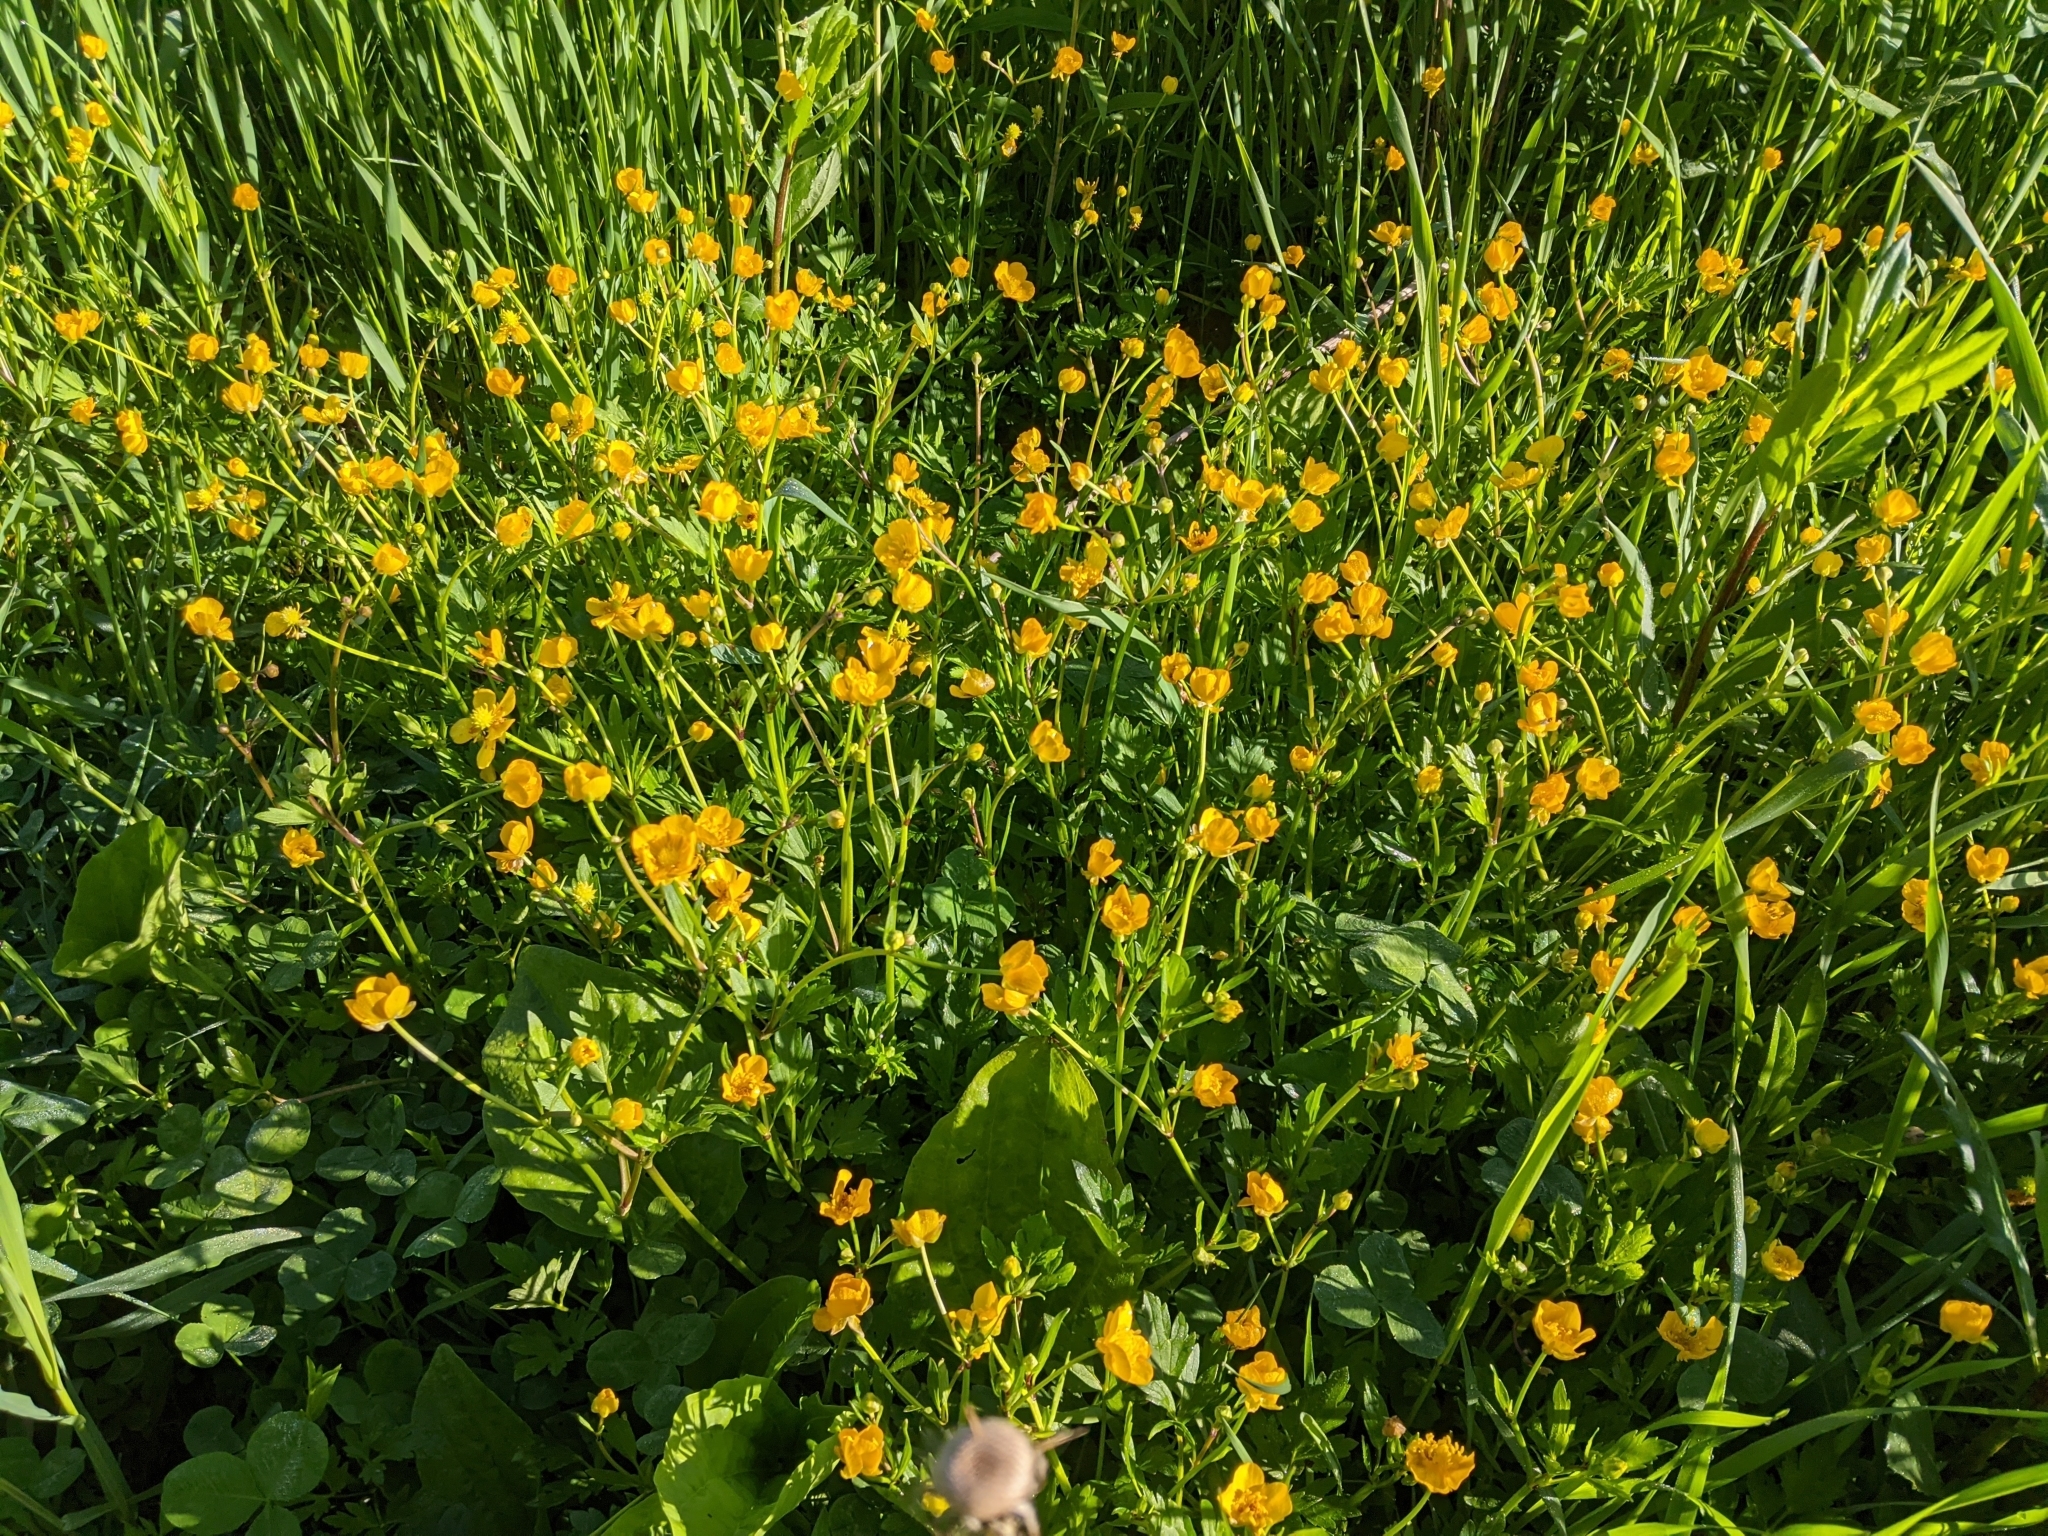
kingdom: Plantae
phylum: Tracheophyta
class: Magnoliopsida
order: Ranunculales
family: Ranunculaceae
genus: Ranunculus
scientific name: Ranunculus repens
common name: Creeping buttercup
